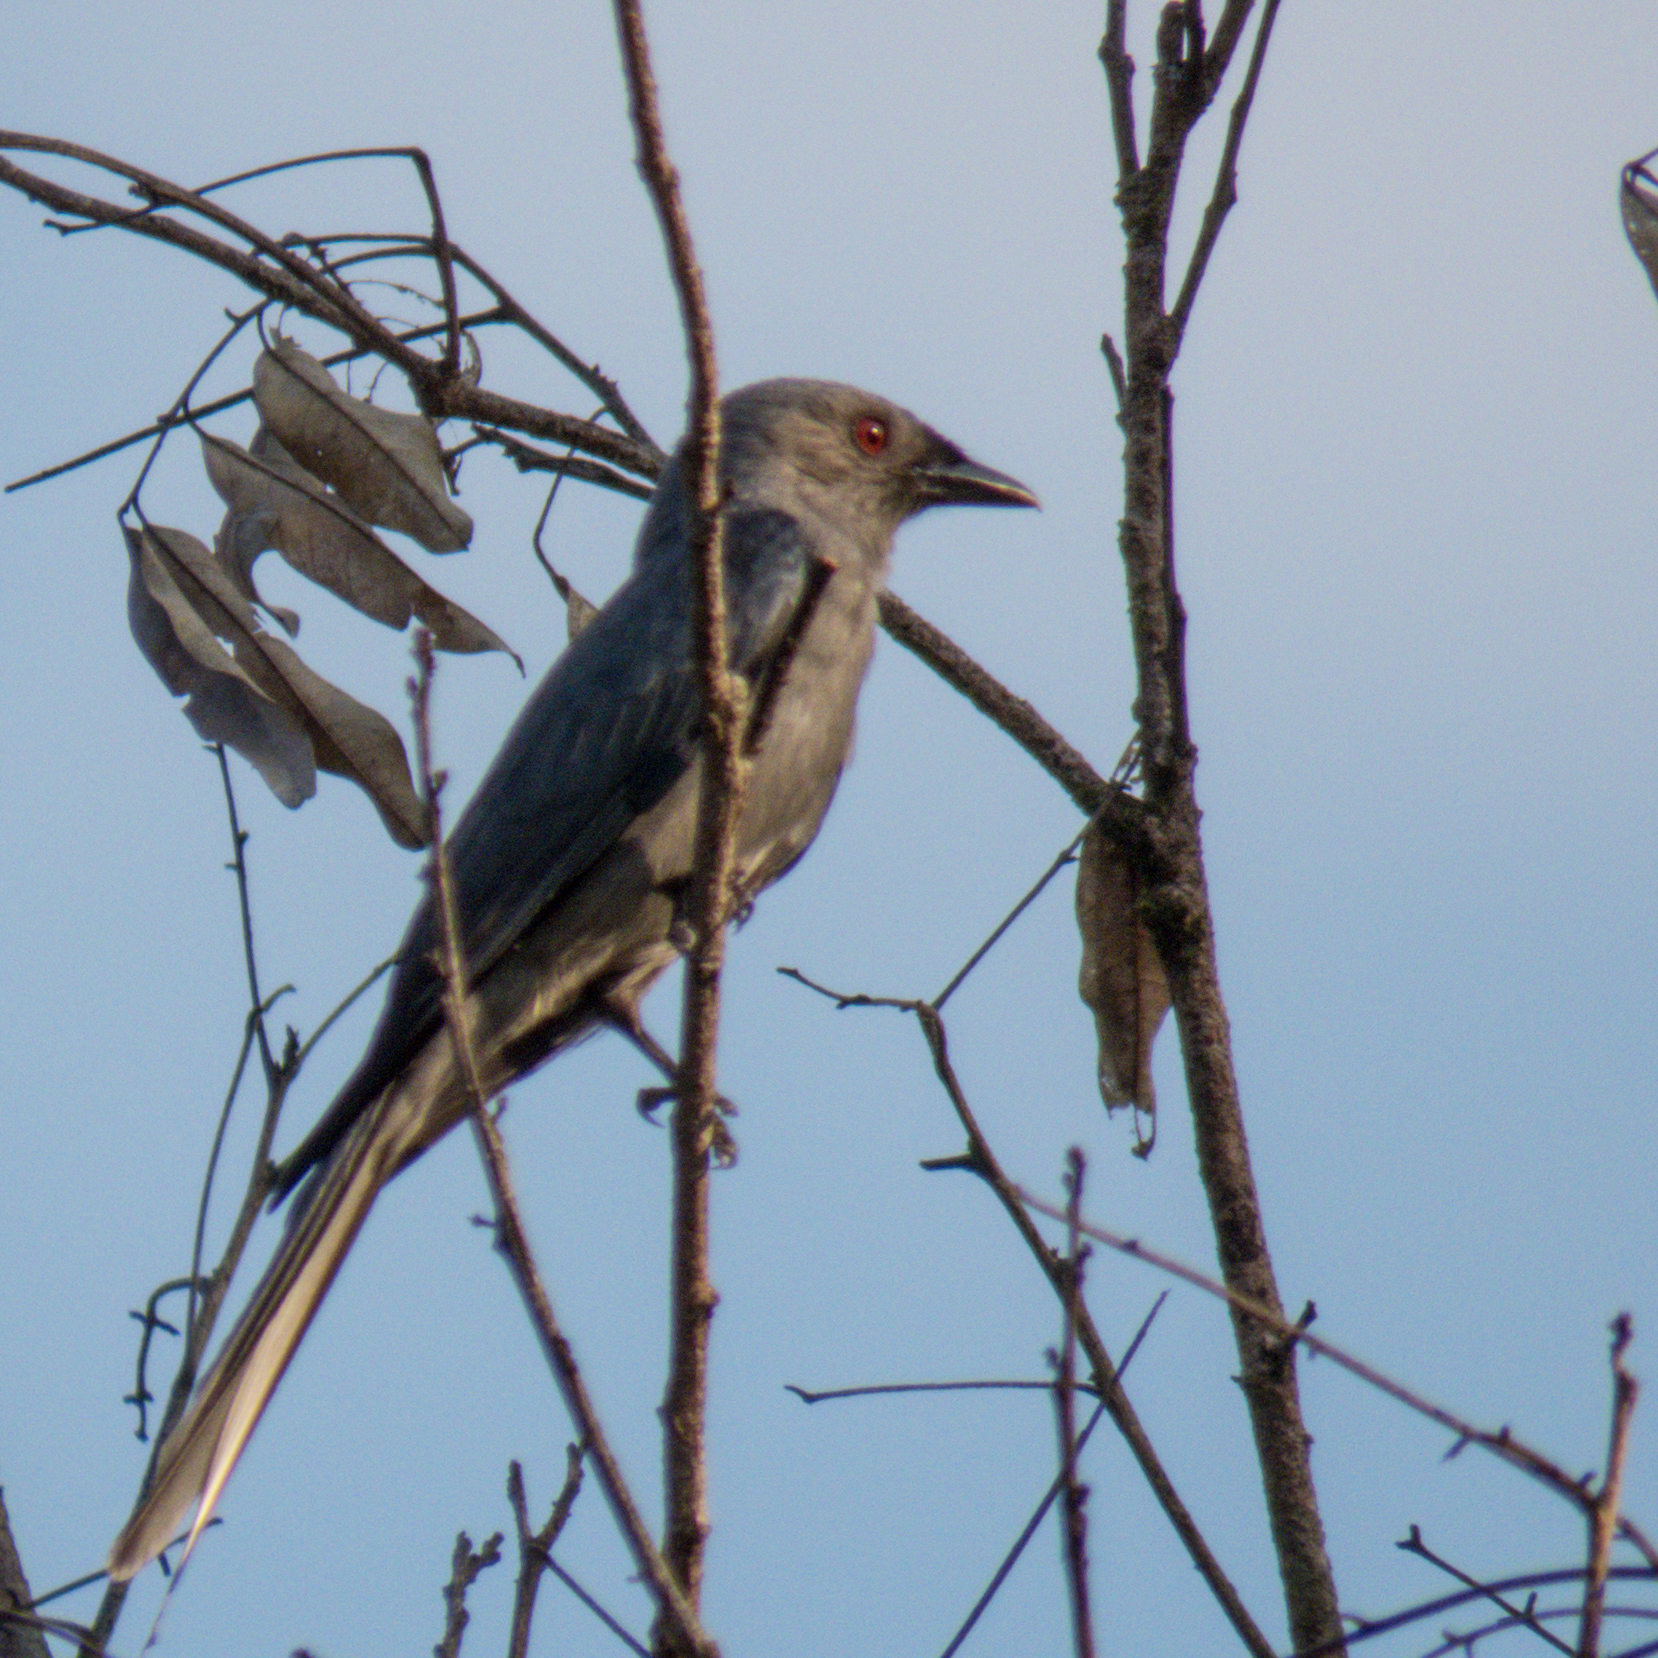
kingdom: Animalia
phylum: Chordata
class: Aves
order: Passeriformes
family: Dicruridae
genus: Dicrurus
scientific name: Dicrurus leucophaeus
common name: Ashy drongo
